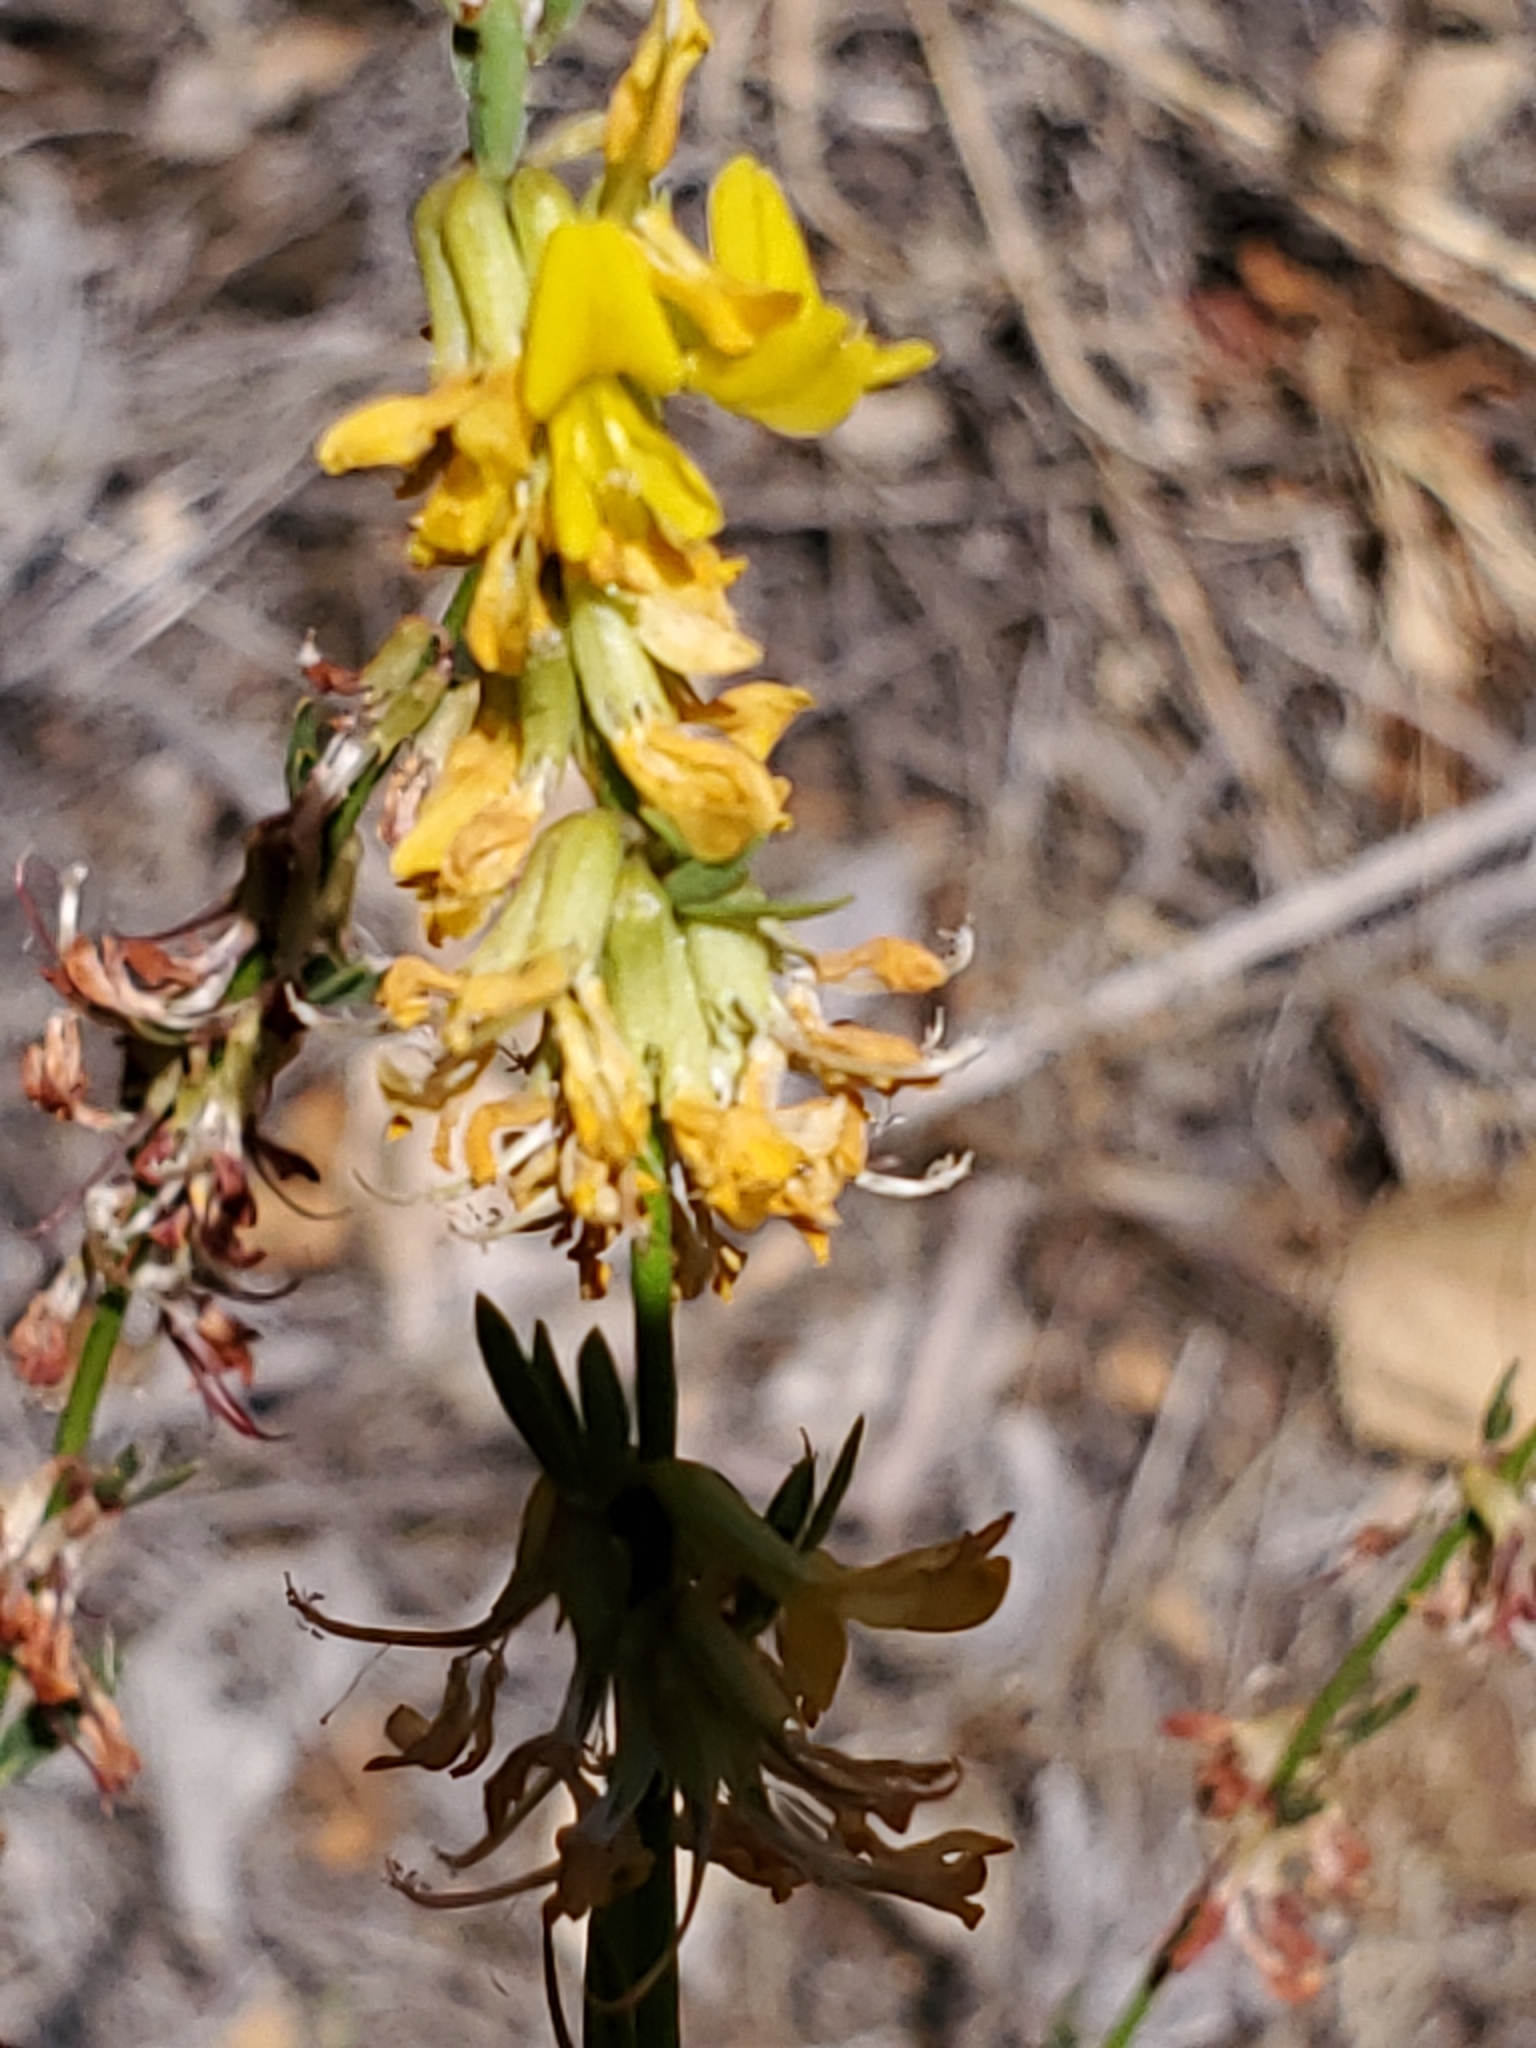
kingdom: Plantae
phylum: Tracheophyta
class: Magnoliopsida
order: Fabales
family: Fabaceae
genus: Acmispon
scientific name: Acmispon glaber
